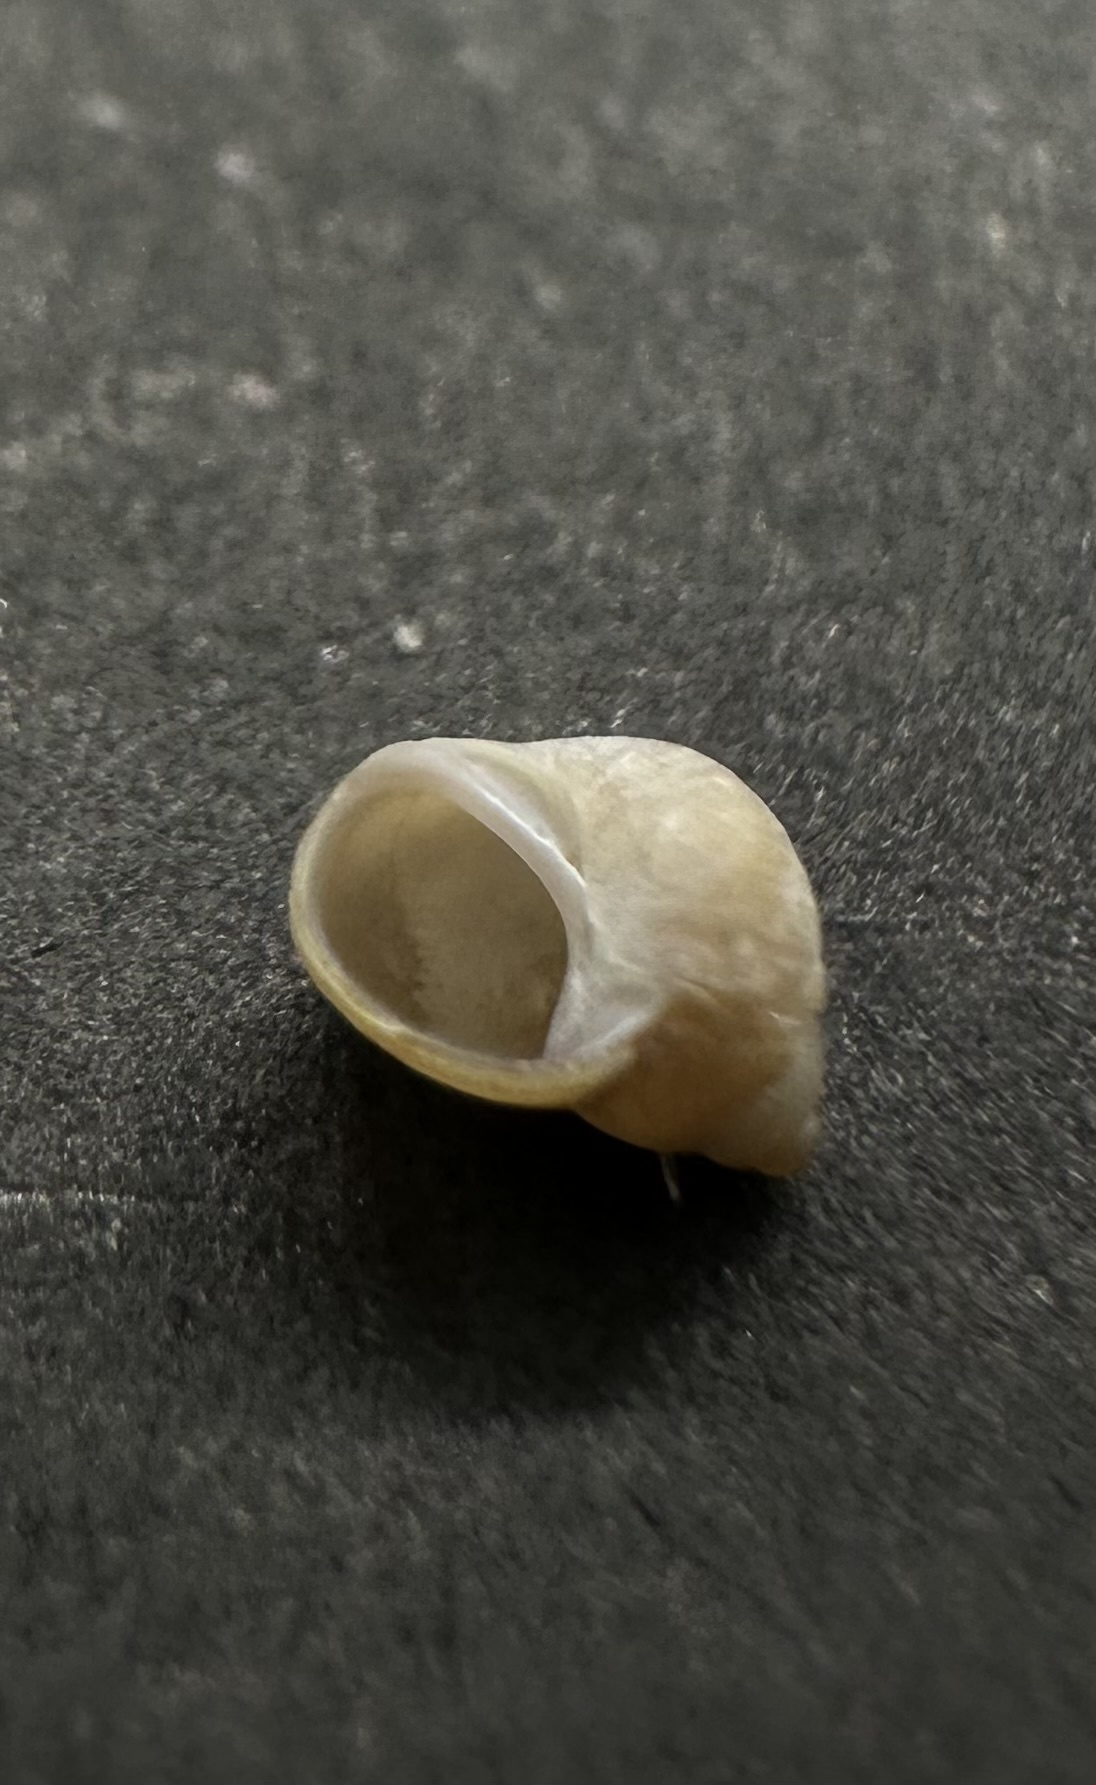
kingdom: Animalia
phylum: Mollusca
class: Gastropoda
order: Littorinimorpha
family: Littorinidae
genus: Lacuna
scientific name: Lacuna vincta
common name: Banded chink shell
